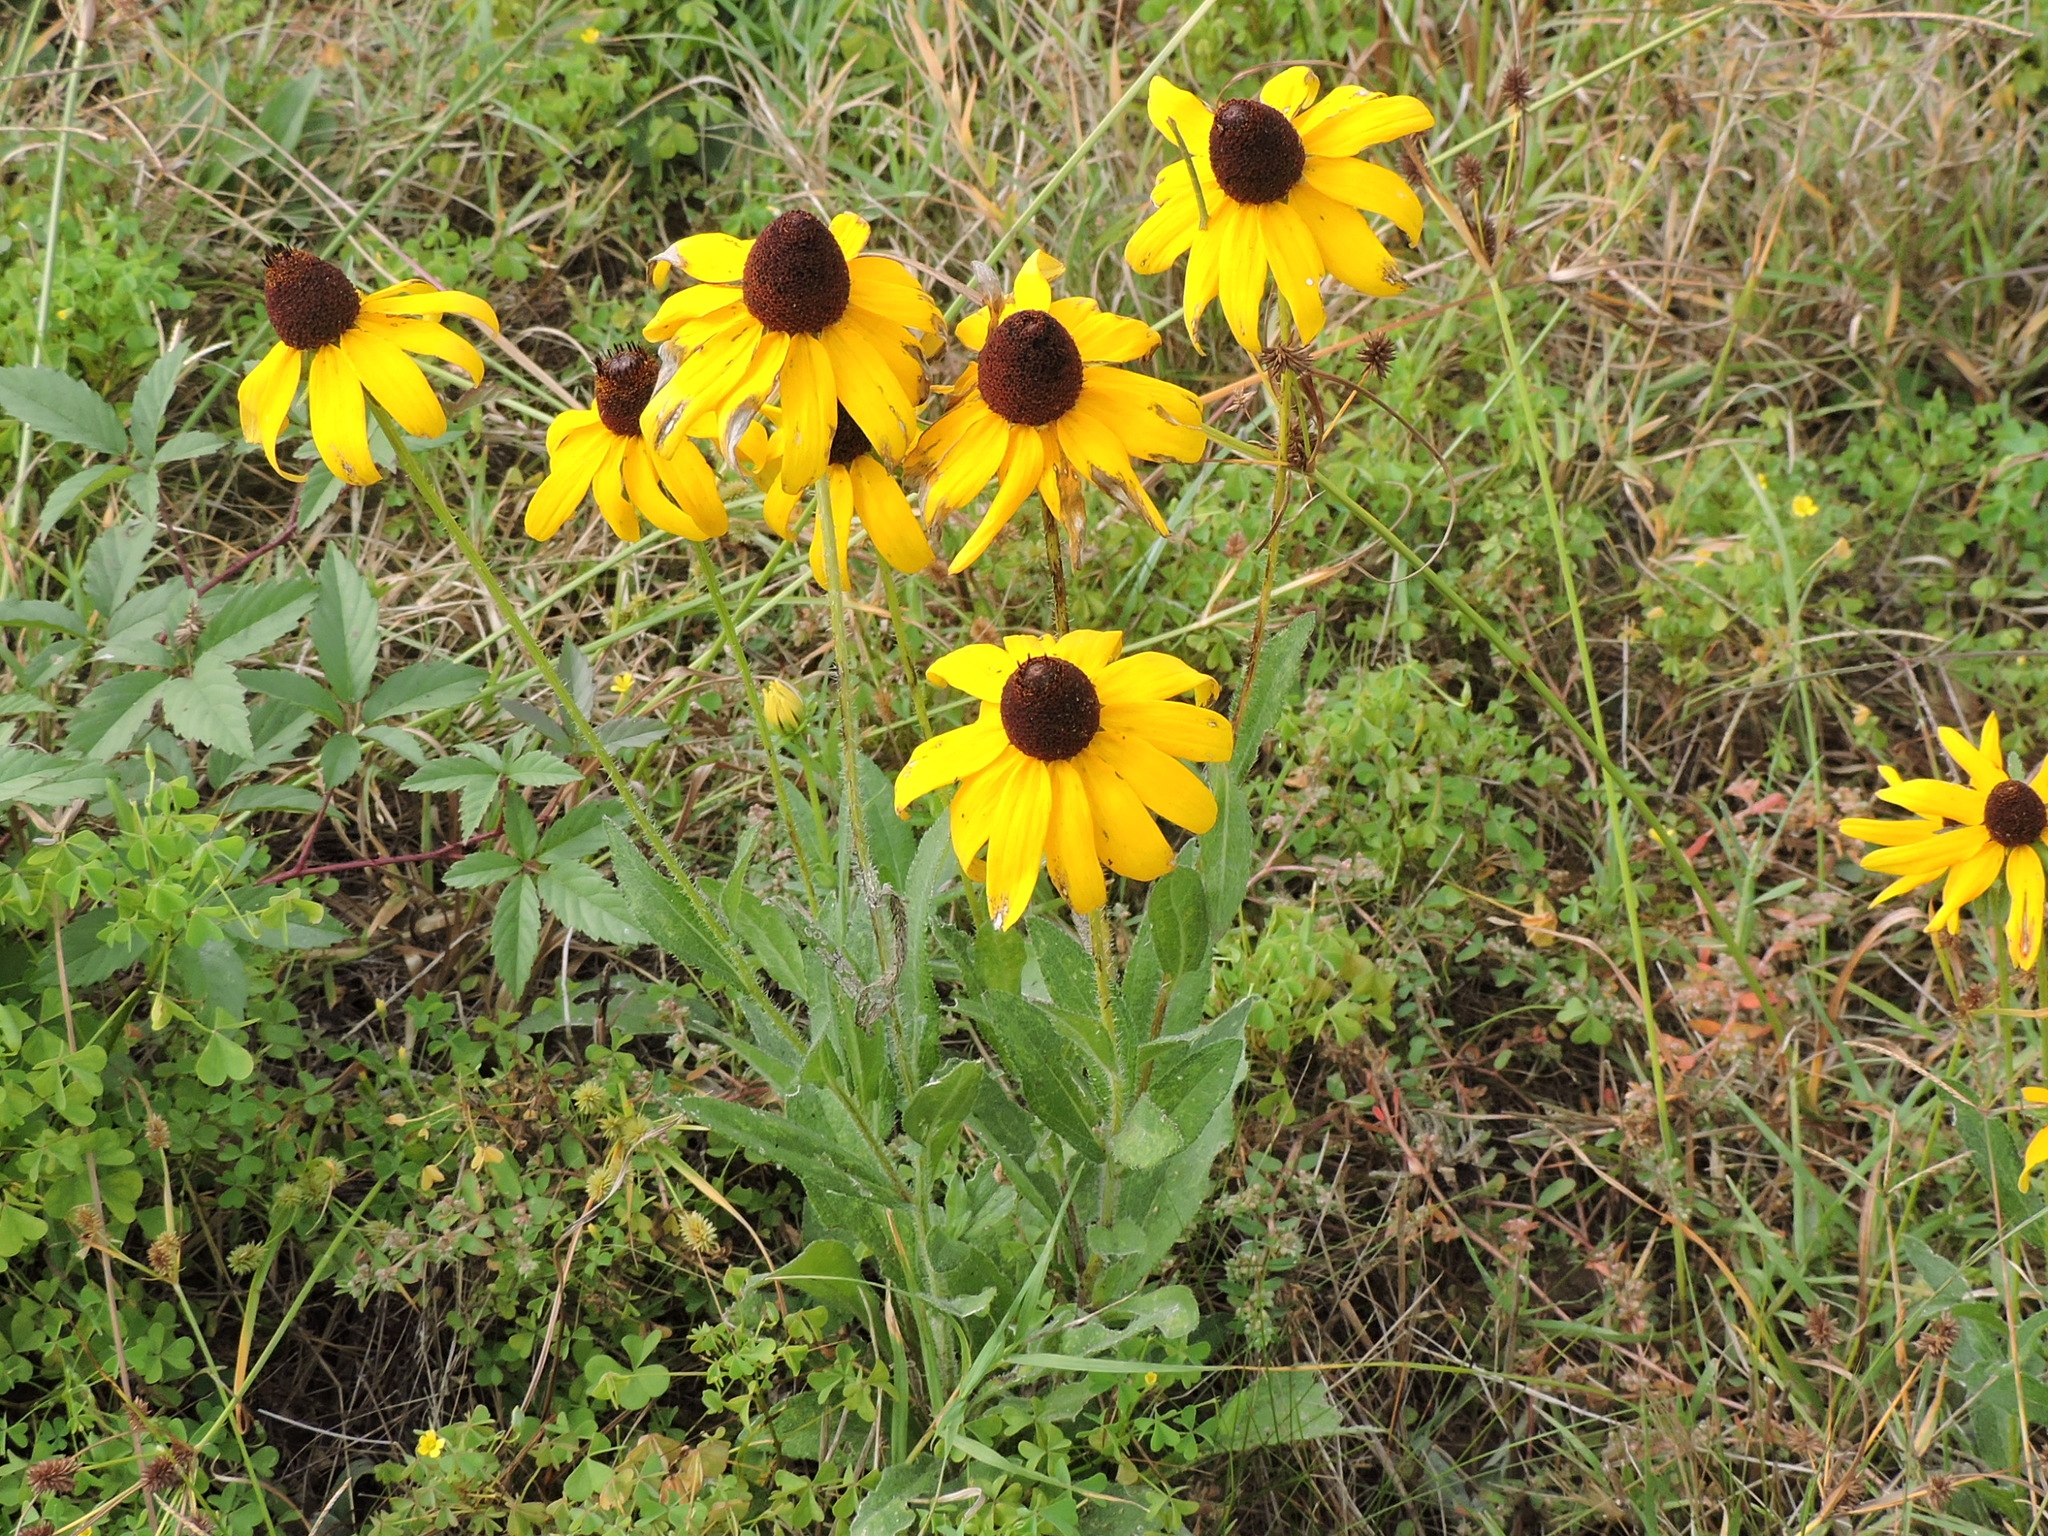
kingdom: Plantae
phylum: Tracheophyta
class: Magnoliopsida
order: Asterales
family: Asteraceae
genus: Rudbeckia
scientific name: Rudbeckia hirta
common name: Black-eyed-susan
